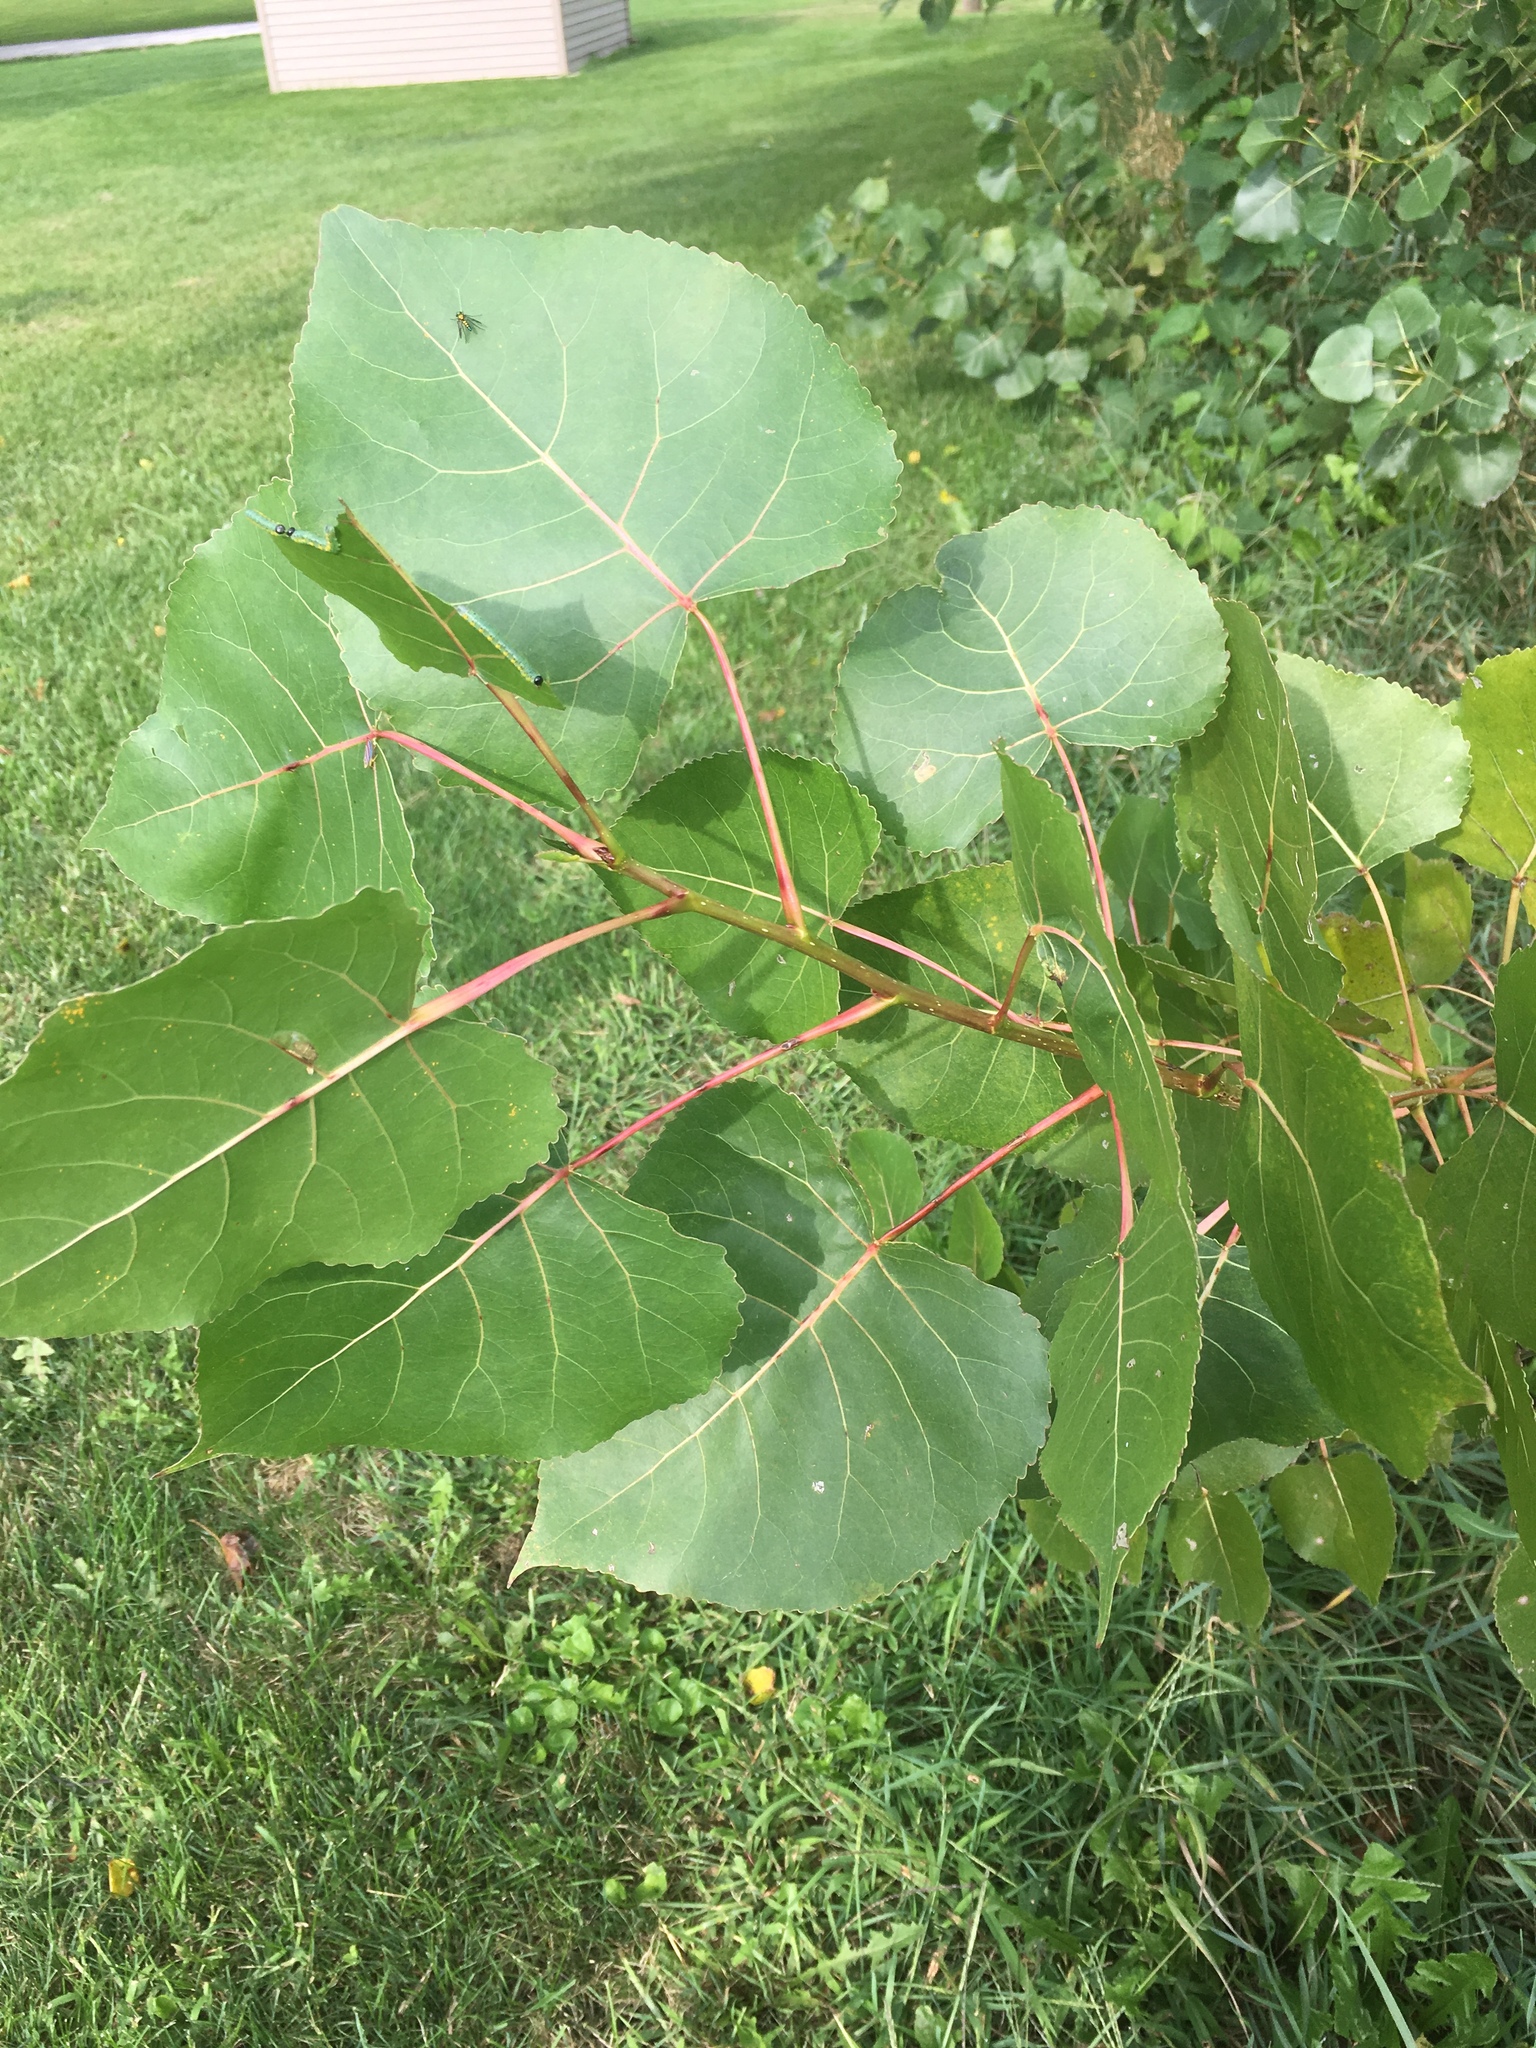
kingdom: Plantae
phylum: Tracheophyta
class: Magnoliopsida
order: Malpighiales
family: Salicaceae
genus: Populus
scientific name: Populus deltoides
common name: Eastern cottonwood
